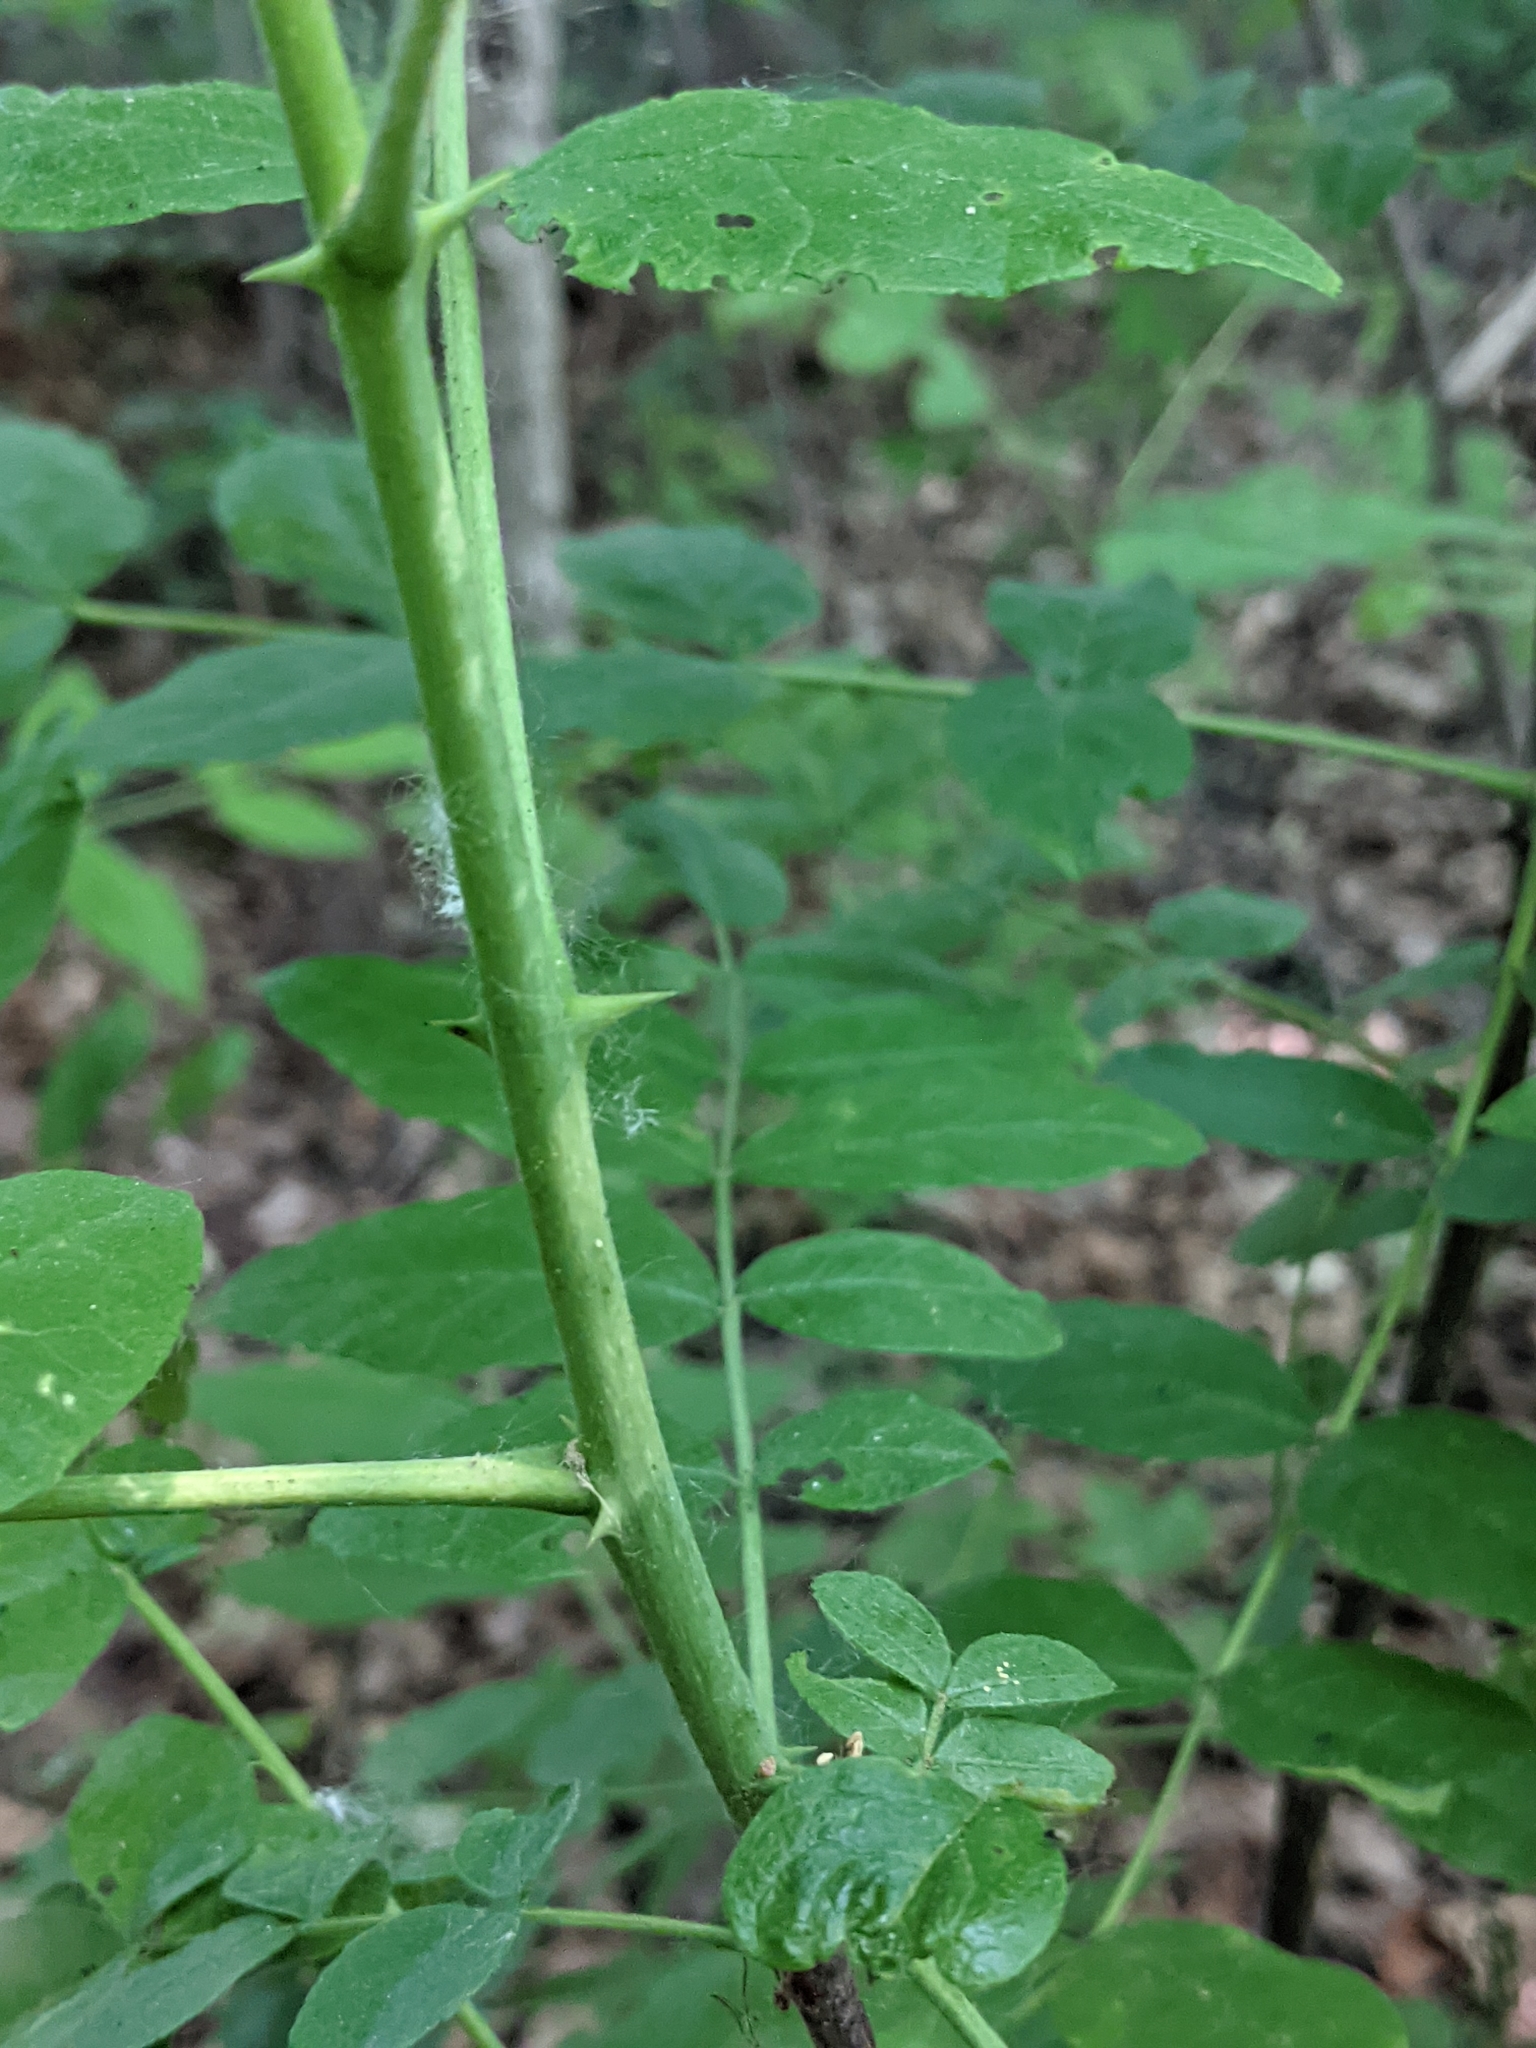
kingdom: Plantae
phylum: Tracheophyta
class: Magnoliopsida
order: Sapindales
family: Rutaceae
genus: Zanthoxylum
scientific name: Zanthoxylum americanum
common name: Northern prickly-ash
